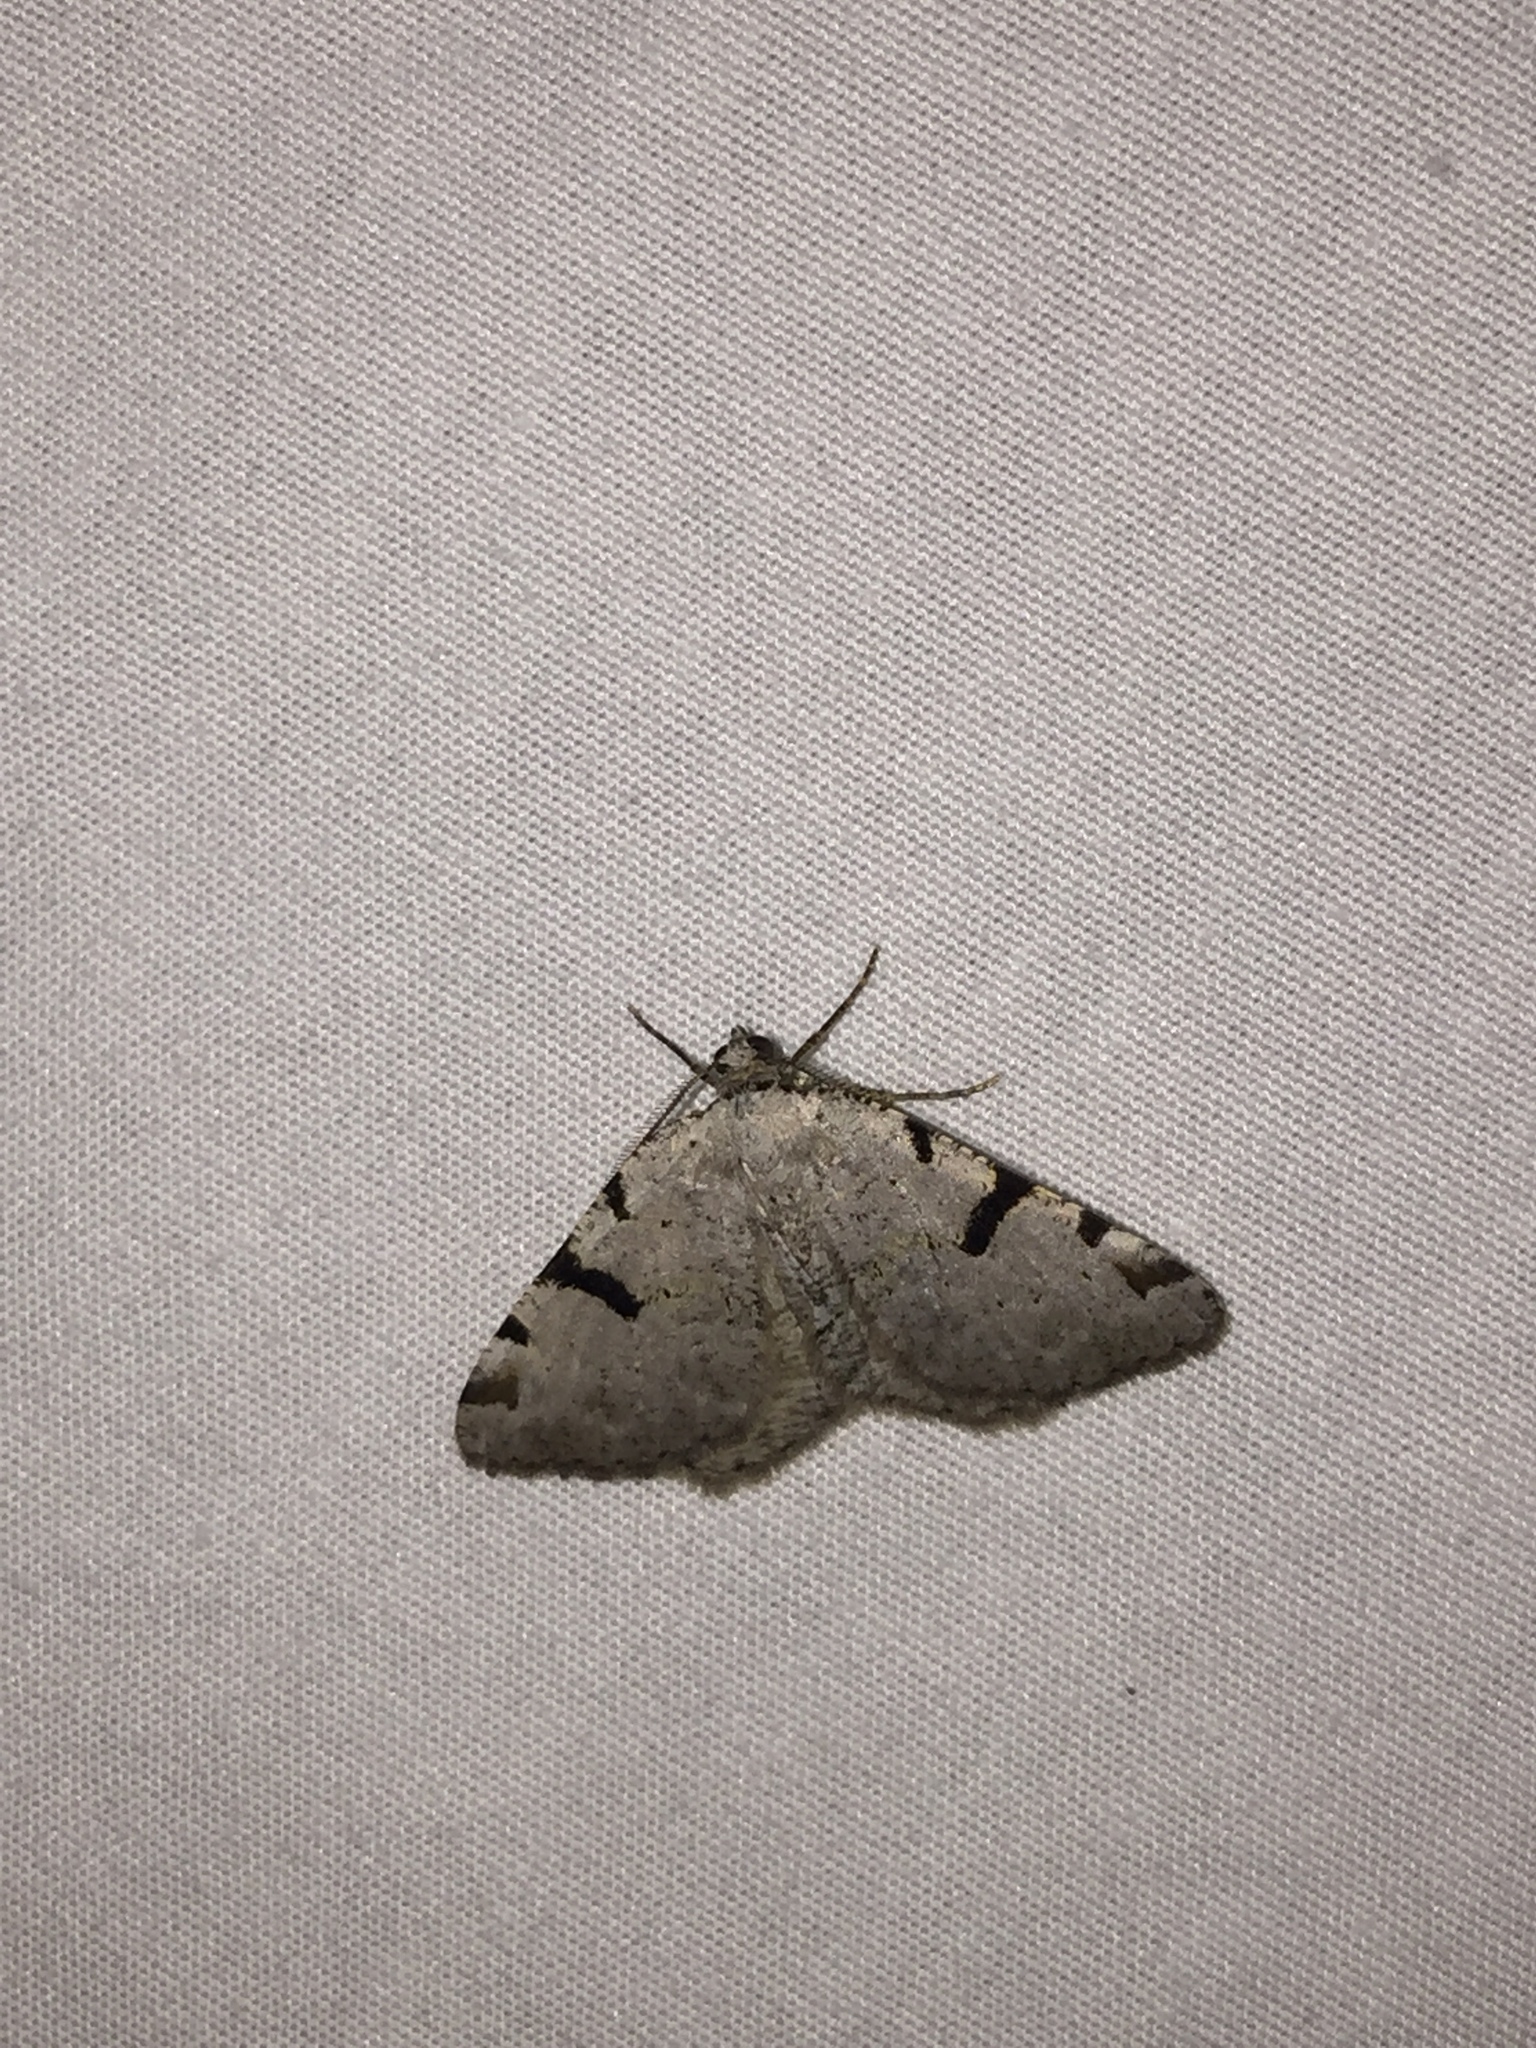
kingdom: Animalia
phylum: Arthropoda
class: Insecta
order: Lepidoptera
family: Geometridae
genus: Macaria
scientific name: Macaria subcessaria
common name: Barred angle
